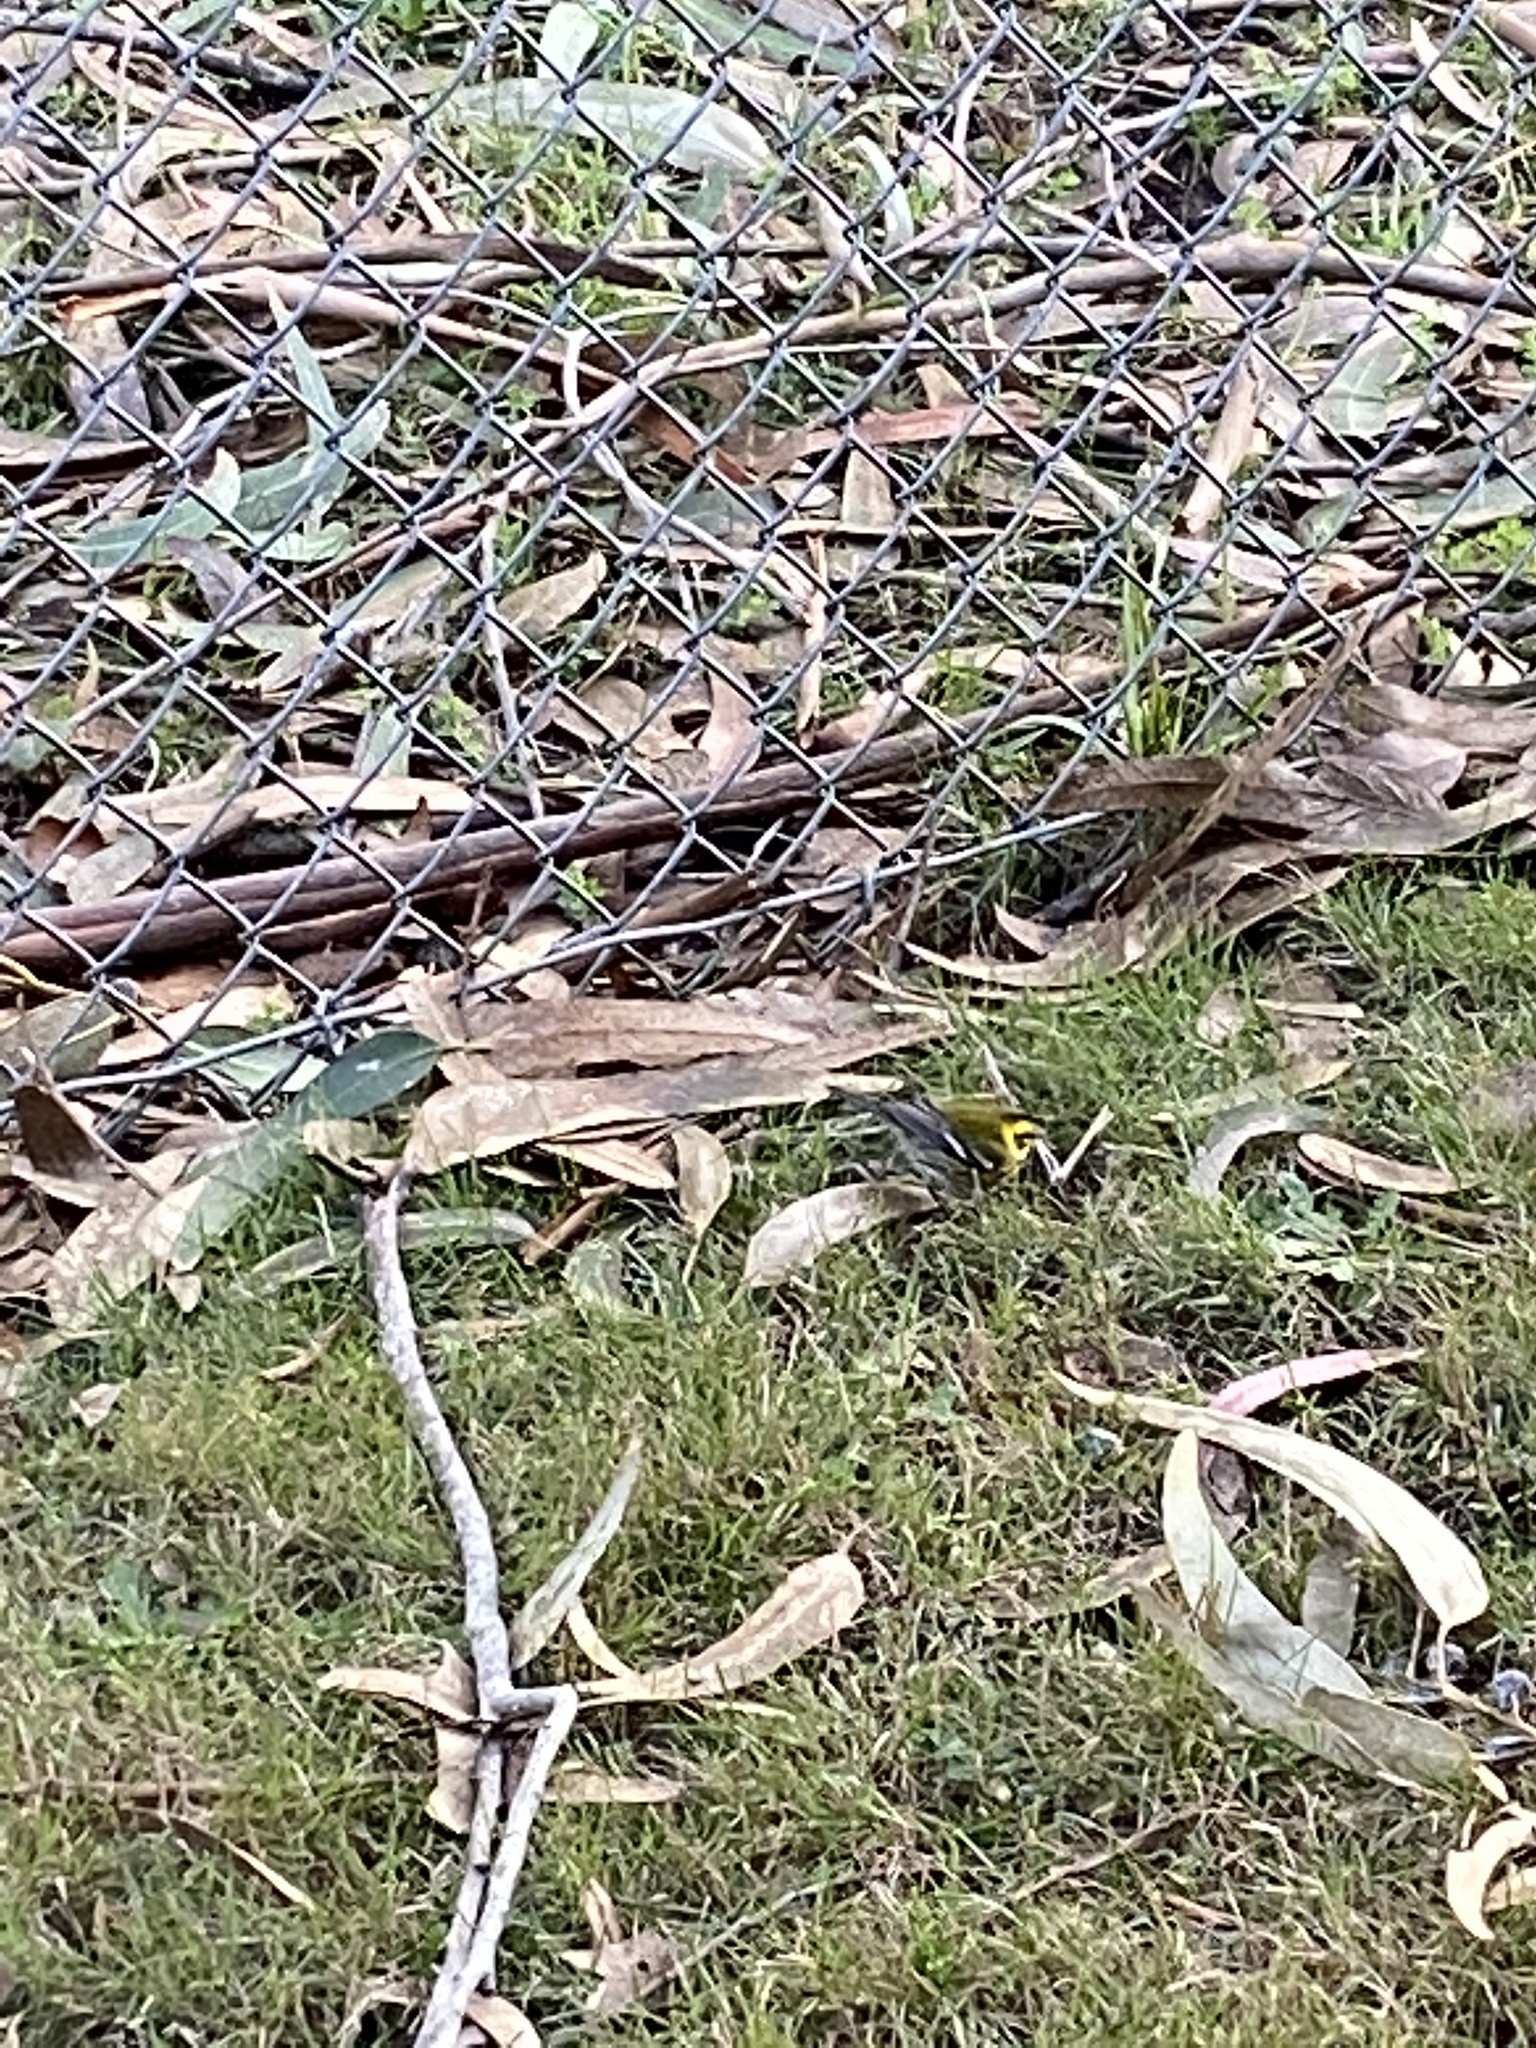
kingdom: Animalia
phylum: Chordata
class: Aves
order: Passeriformes
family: Parulidae
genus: Setophaga
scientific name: Setophaga townsendi
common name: Townsend's warbler
